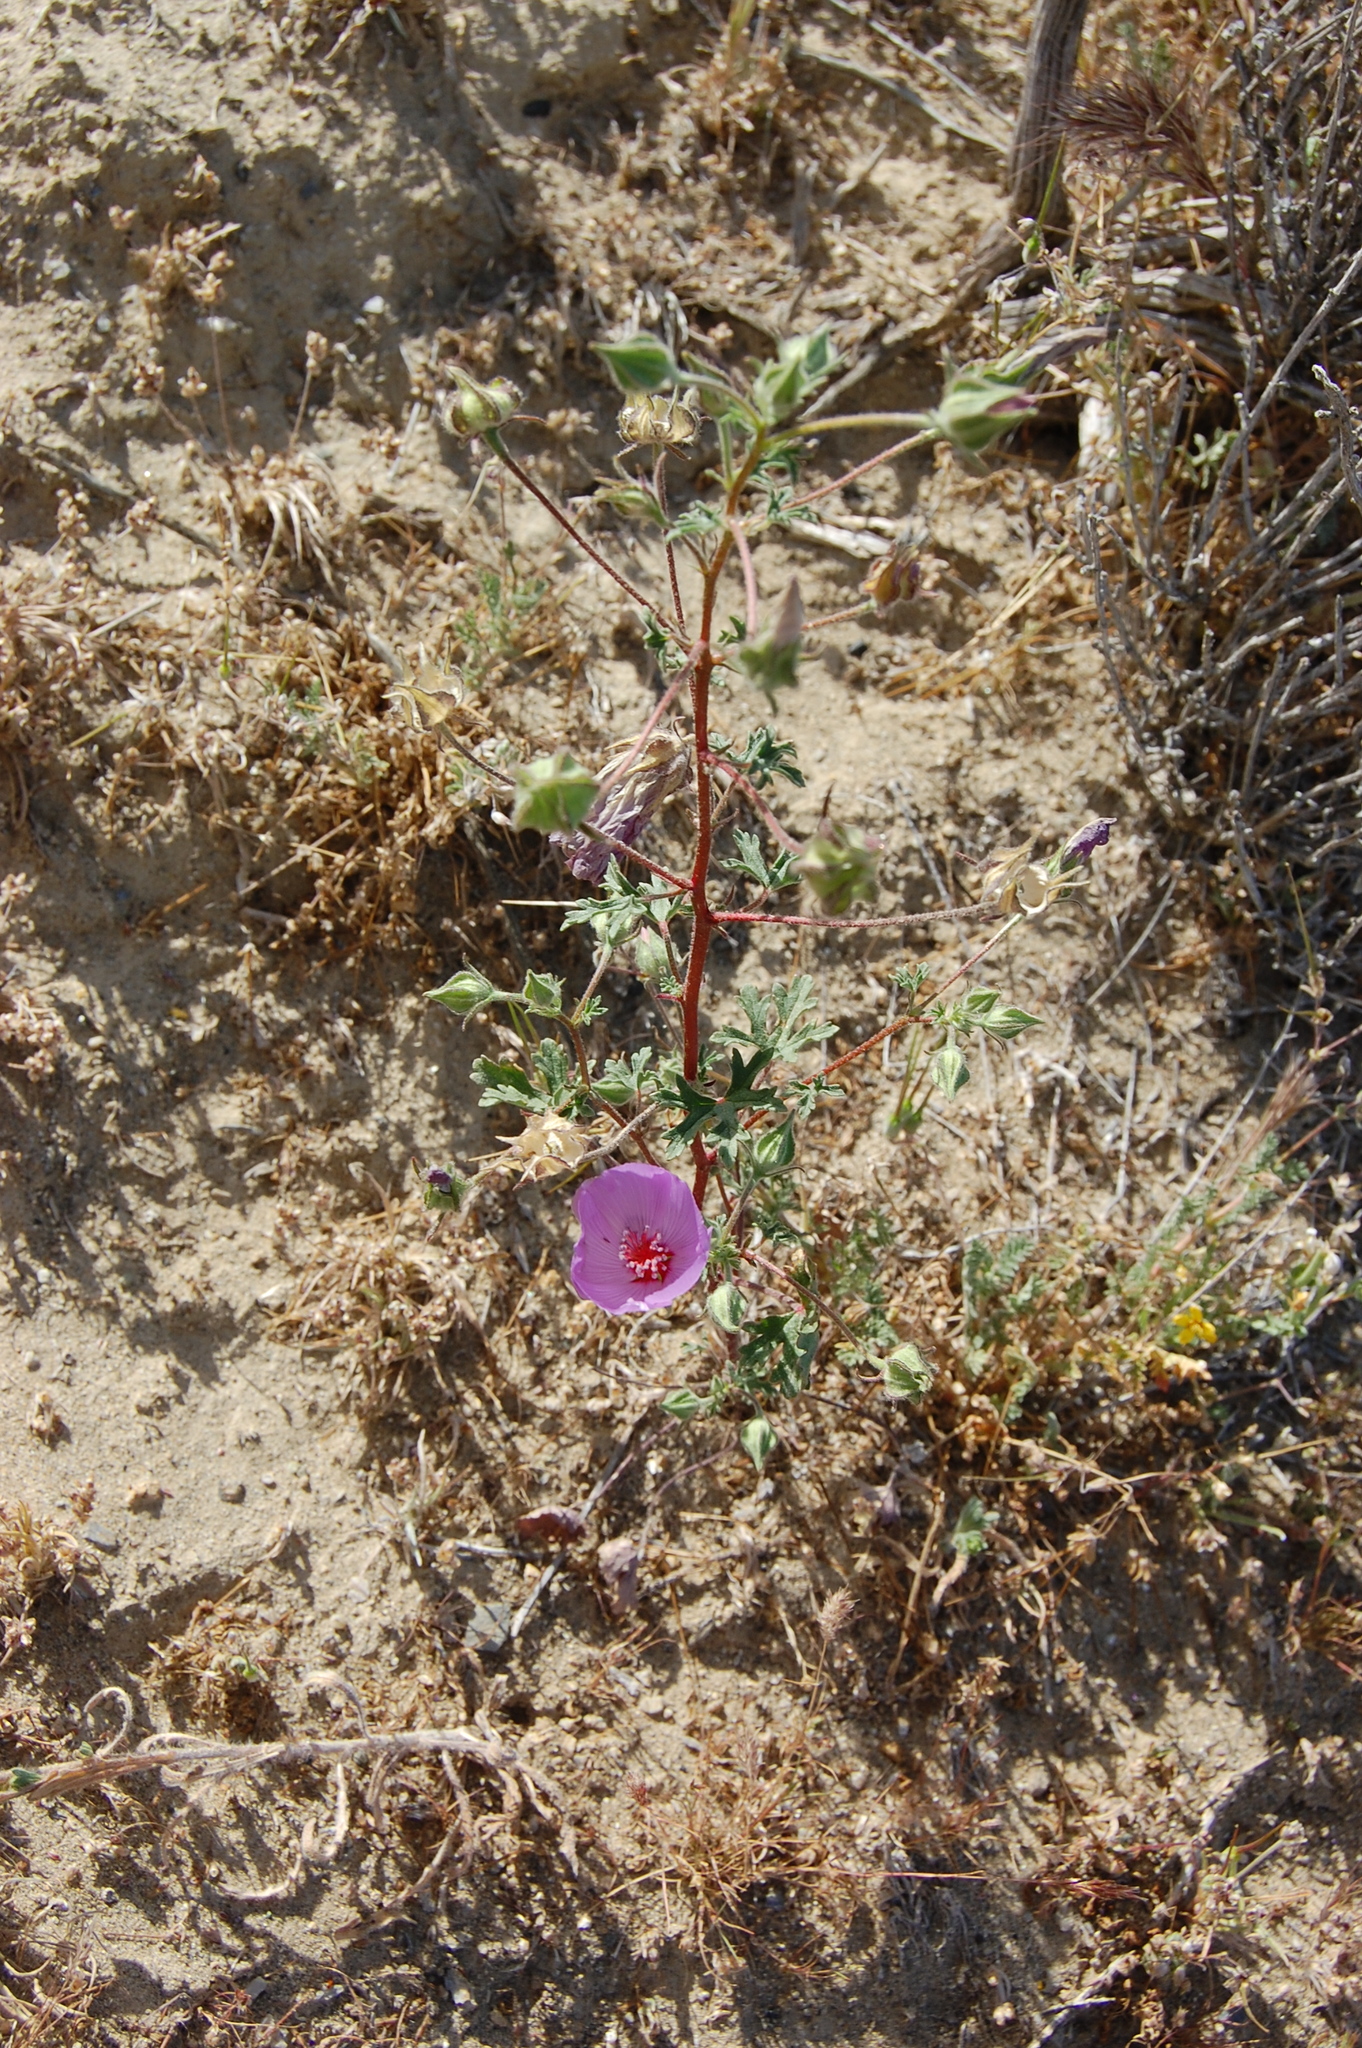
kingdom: Plantae
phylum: Tracheophyta
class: Magnoliopsida
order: Malvales
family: Malvaceae
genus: Eremalche
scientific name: Eremalche parryi
